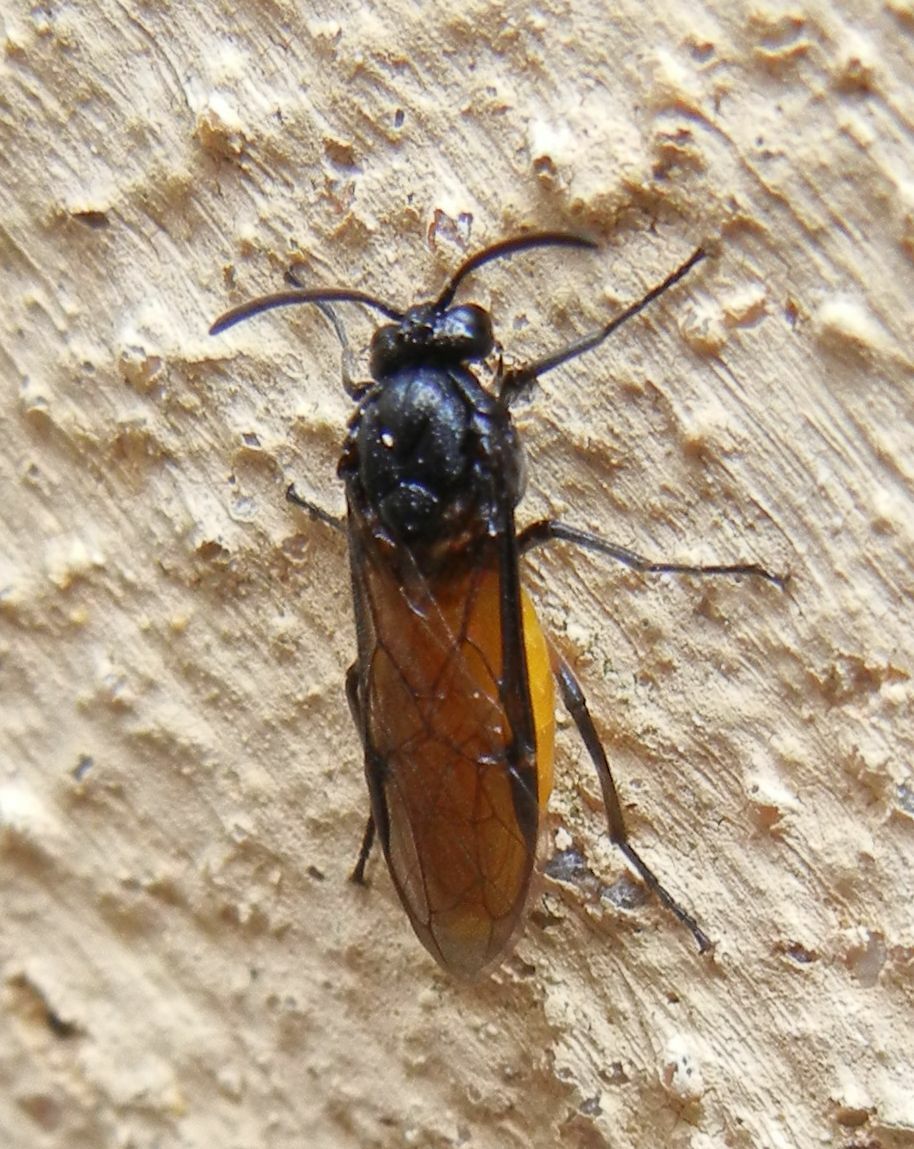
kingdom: Animalia
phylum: Arthropoda
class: Insecta
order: Hymenoptera
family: Argidae
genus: Arge
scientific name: Arge pagana
